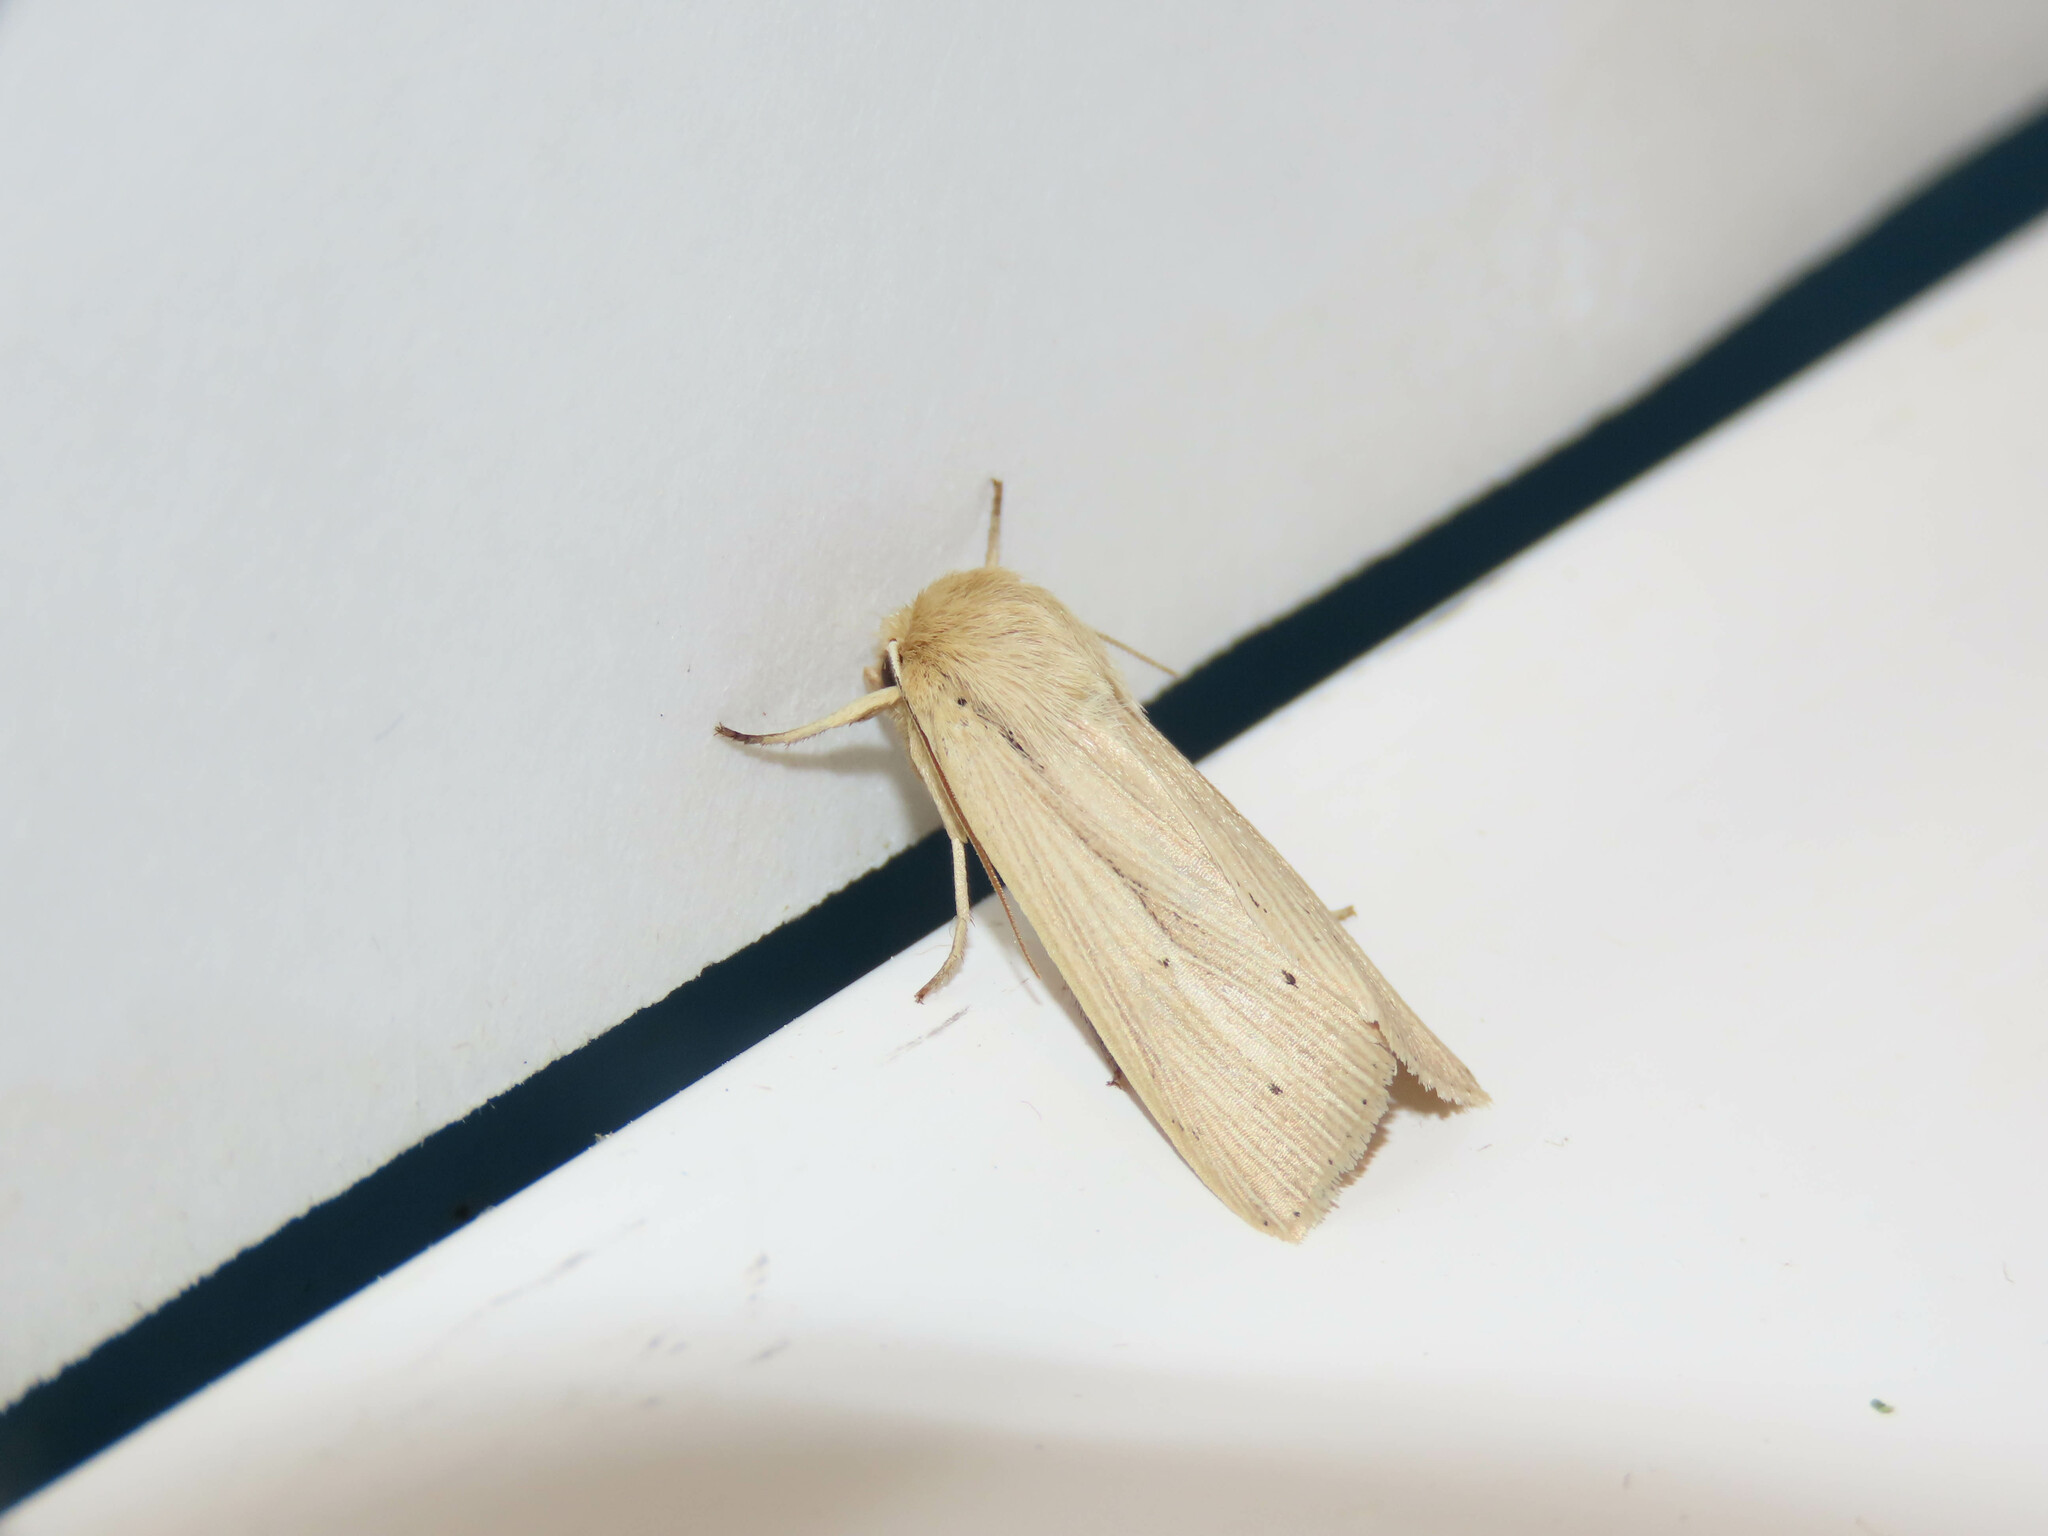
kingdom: Animalia
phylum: Arthropoda
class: Insecta
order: Lepidoptera
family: Noctuidae
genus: Mythimna
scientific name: Mythimna oxygala
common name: Lesser wainscot
